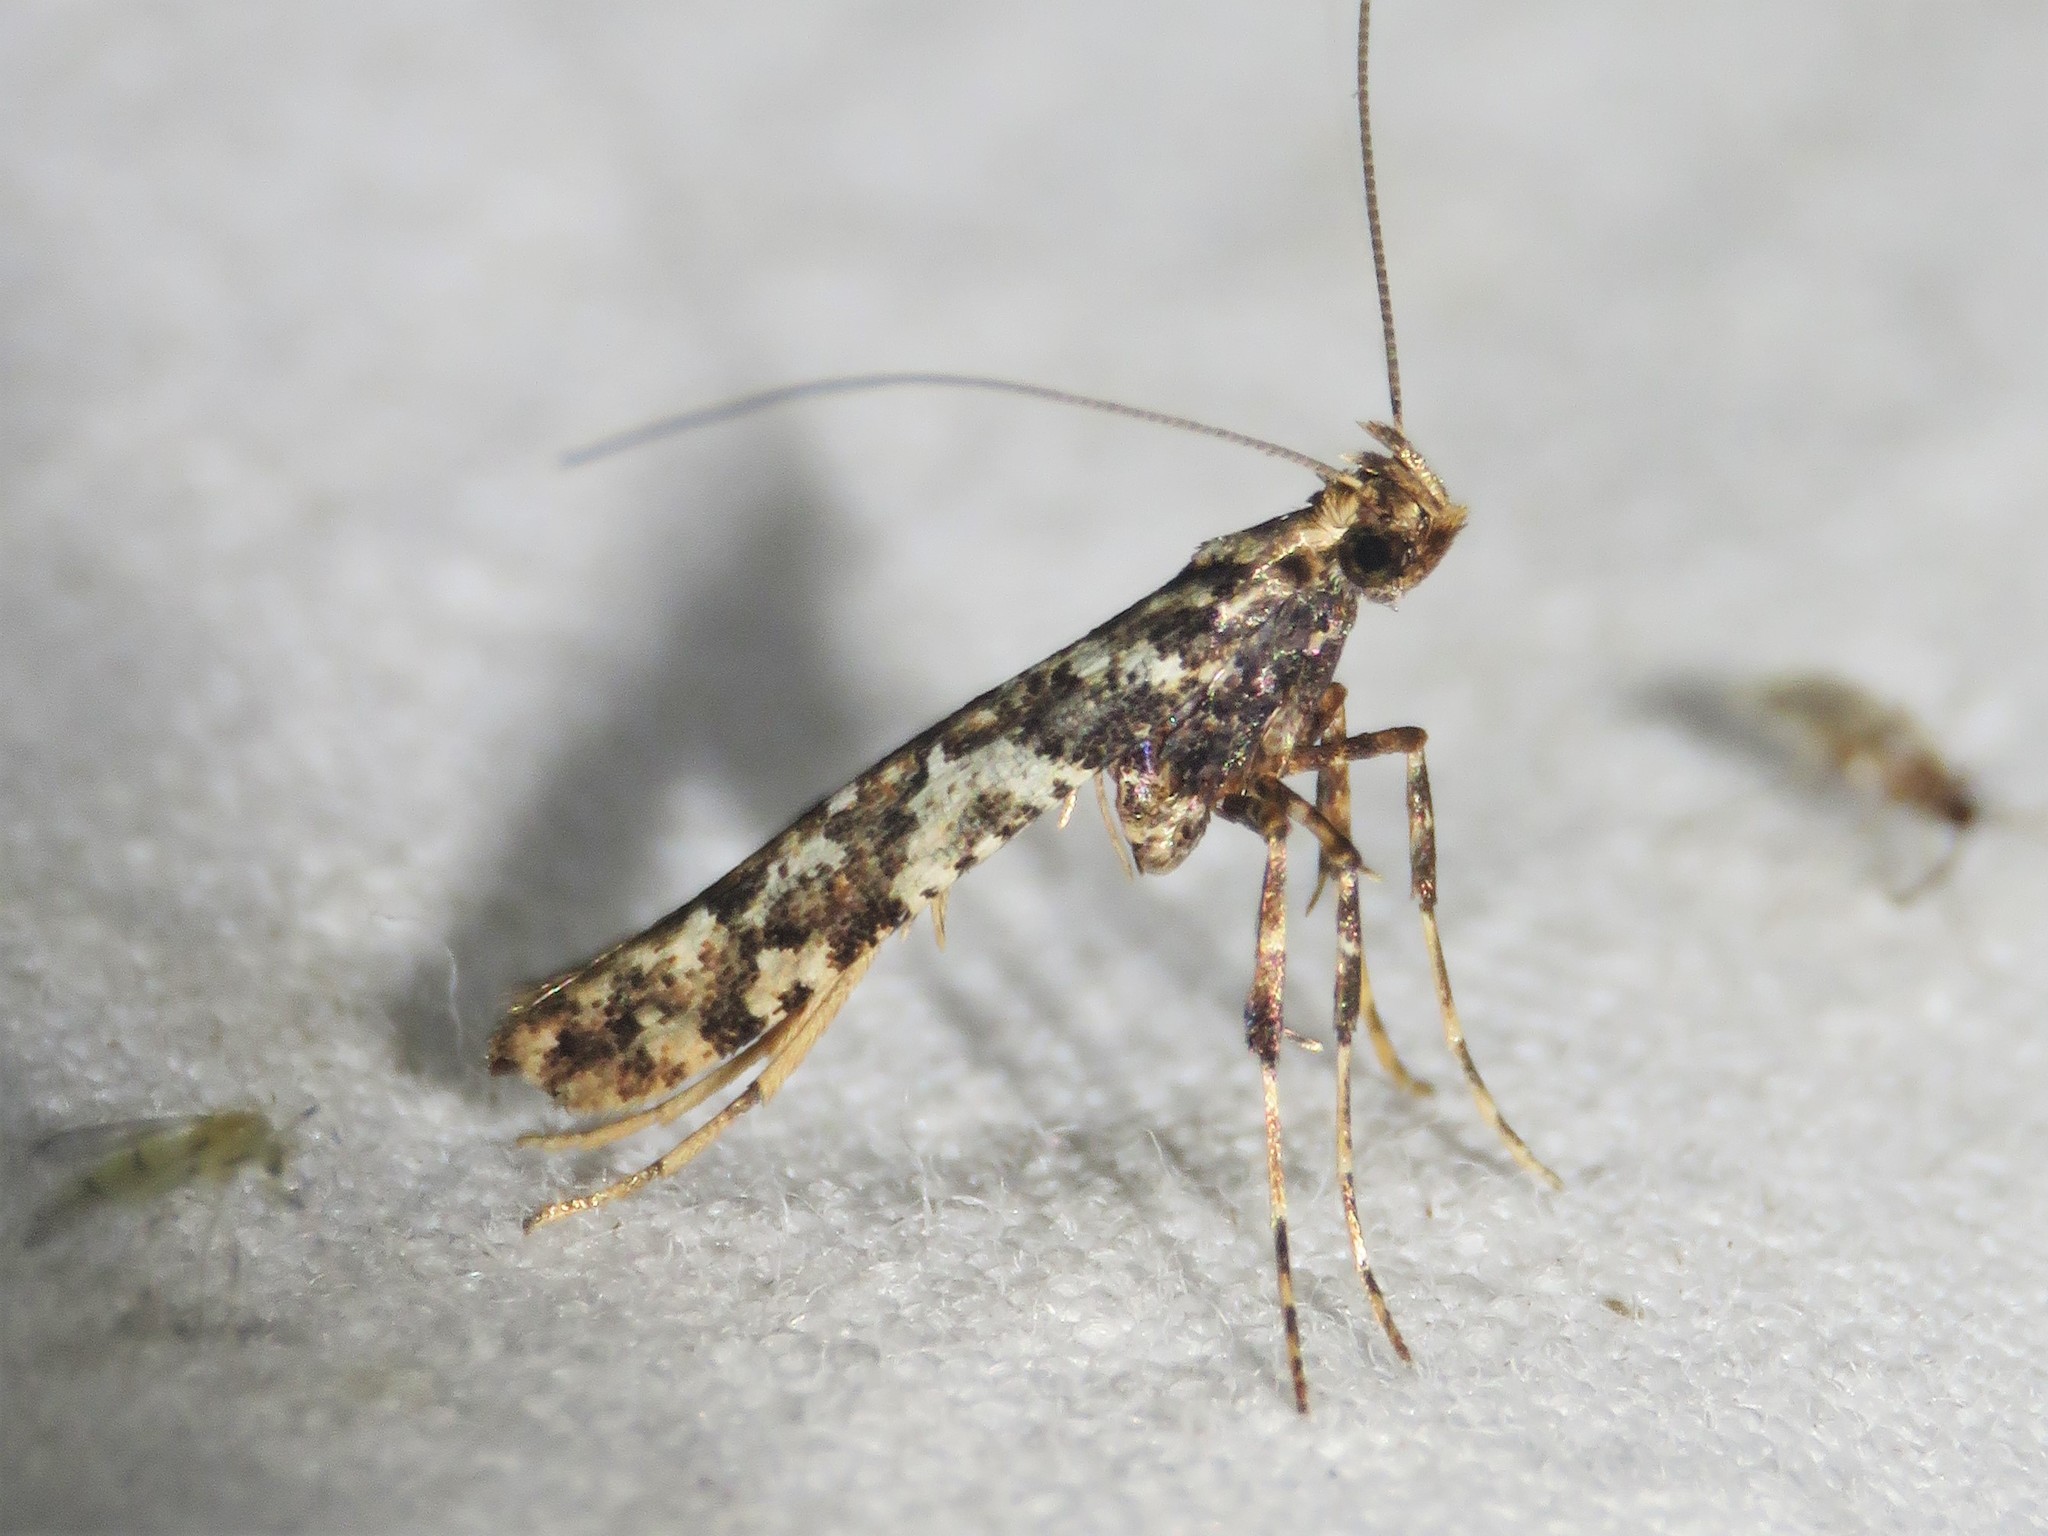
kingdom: Animalia
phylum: Arthropoda
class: Insecta
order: Lepidoptera
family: Gracillariidae
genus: Caloptilia
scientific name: Caloptilia serotinella
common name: Cherry leafroller moth
